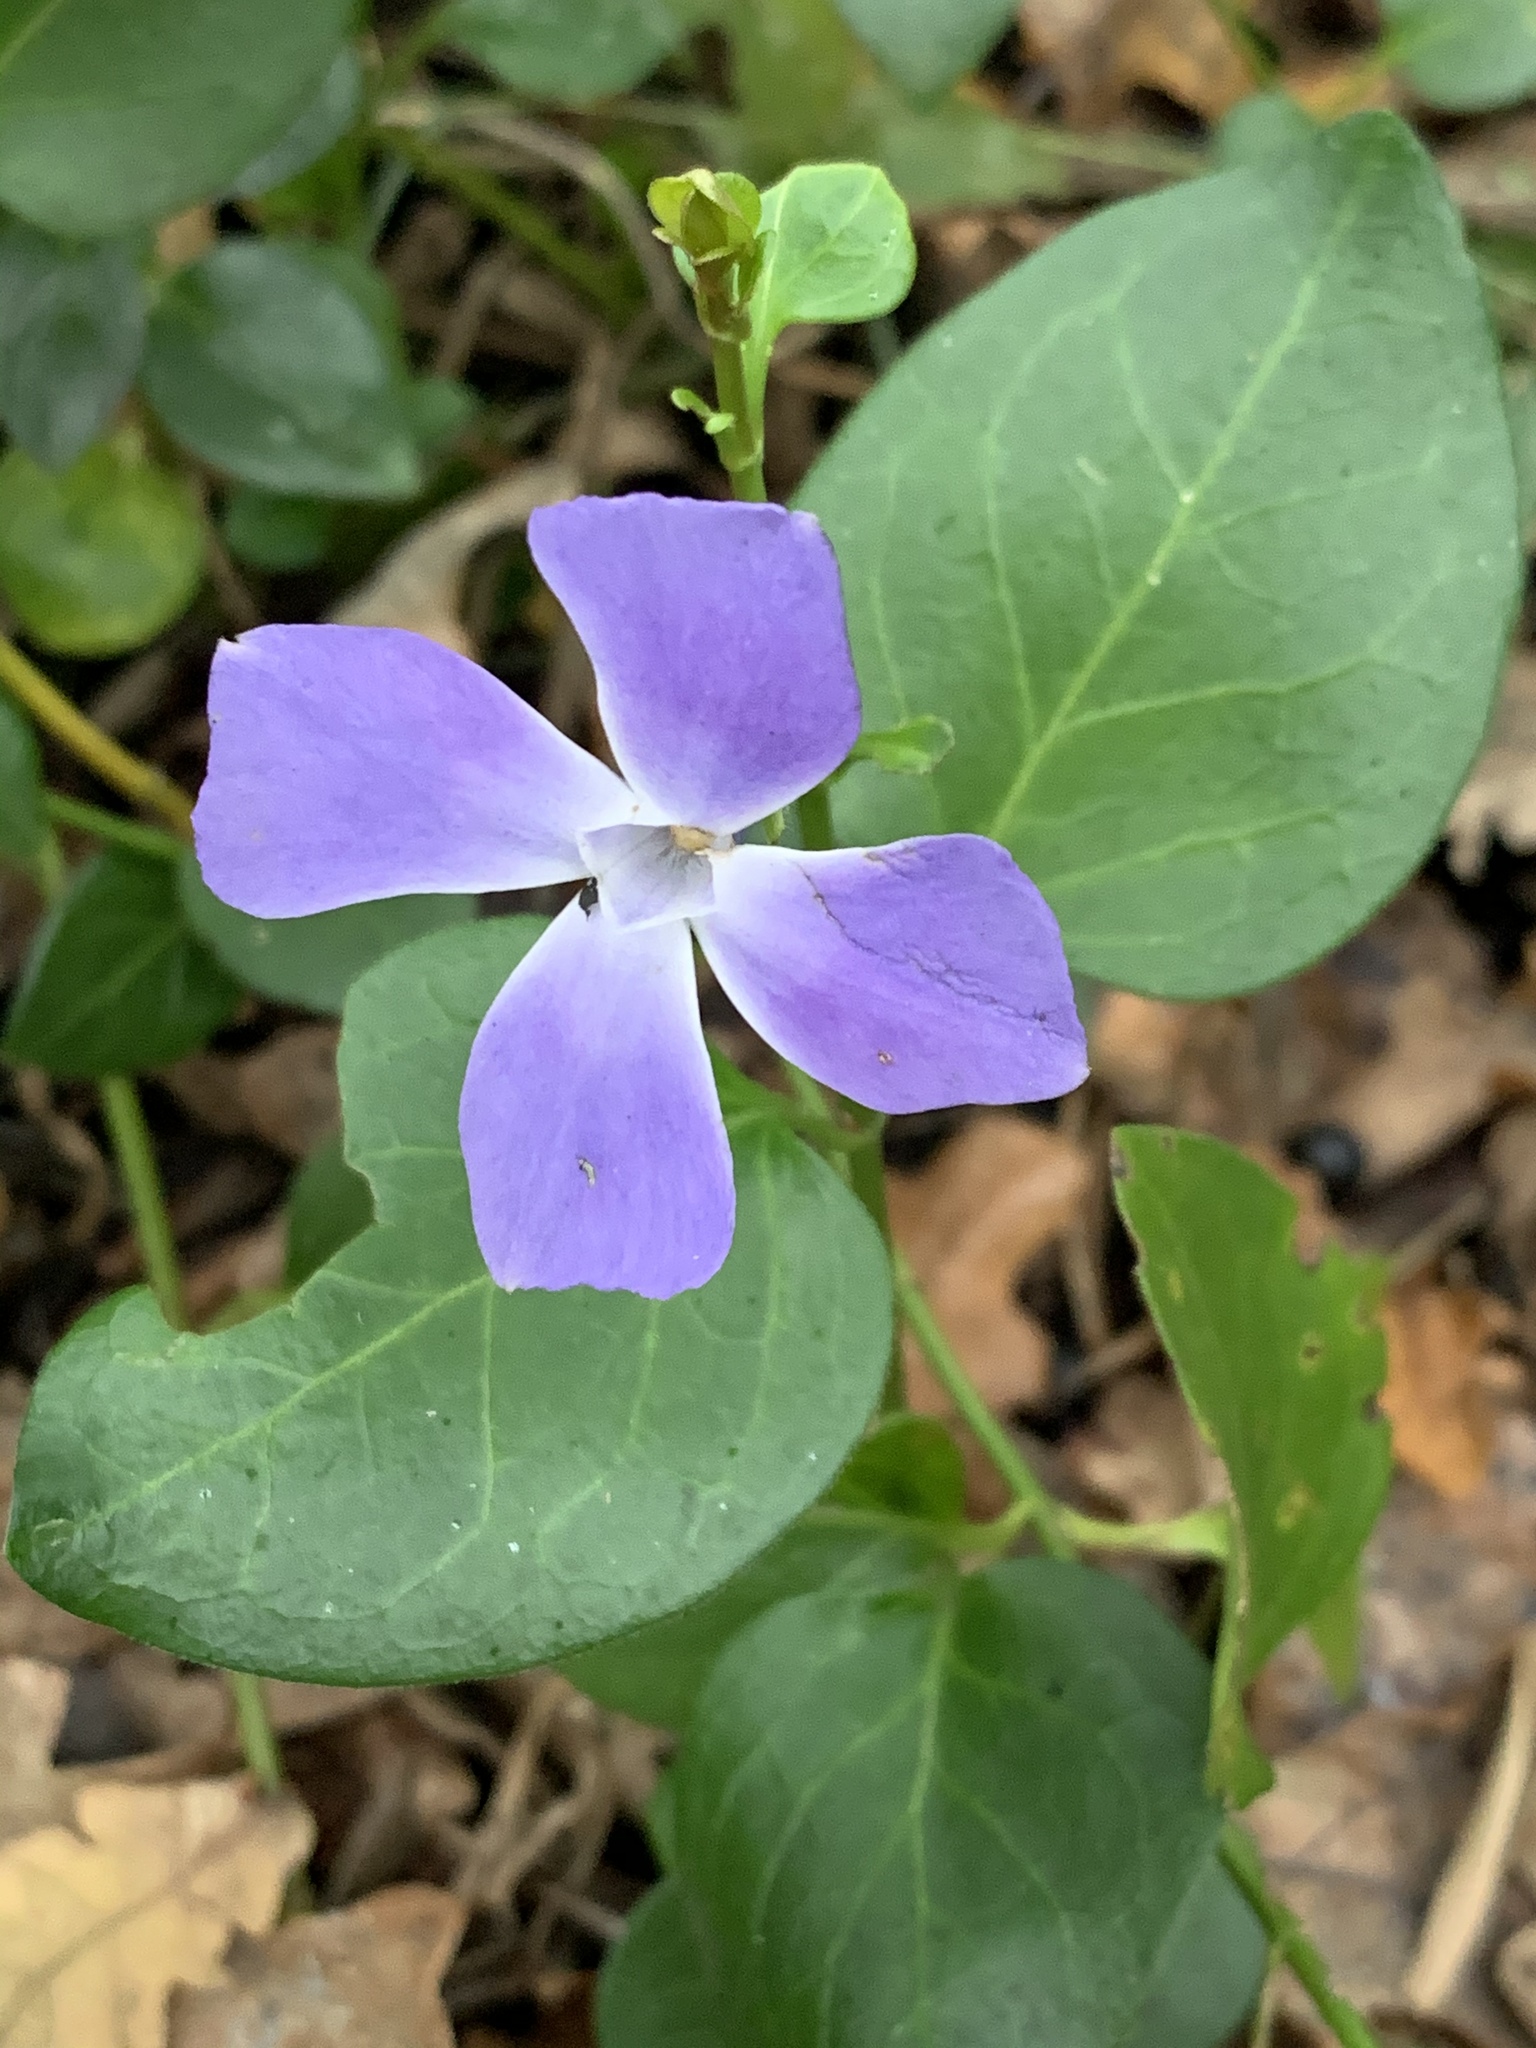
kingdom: Plantae
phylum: Tracheophyta
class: Magnoliopsida
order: Gentianales
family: Apocynaceae
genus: Vinca
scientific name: Vinca major
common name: Greater periwinkle
